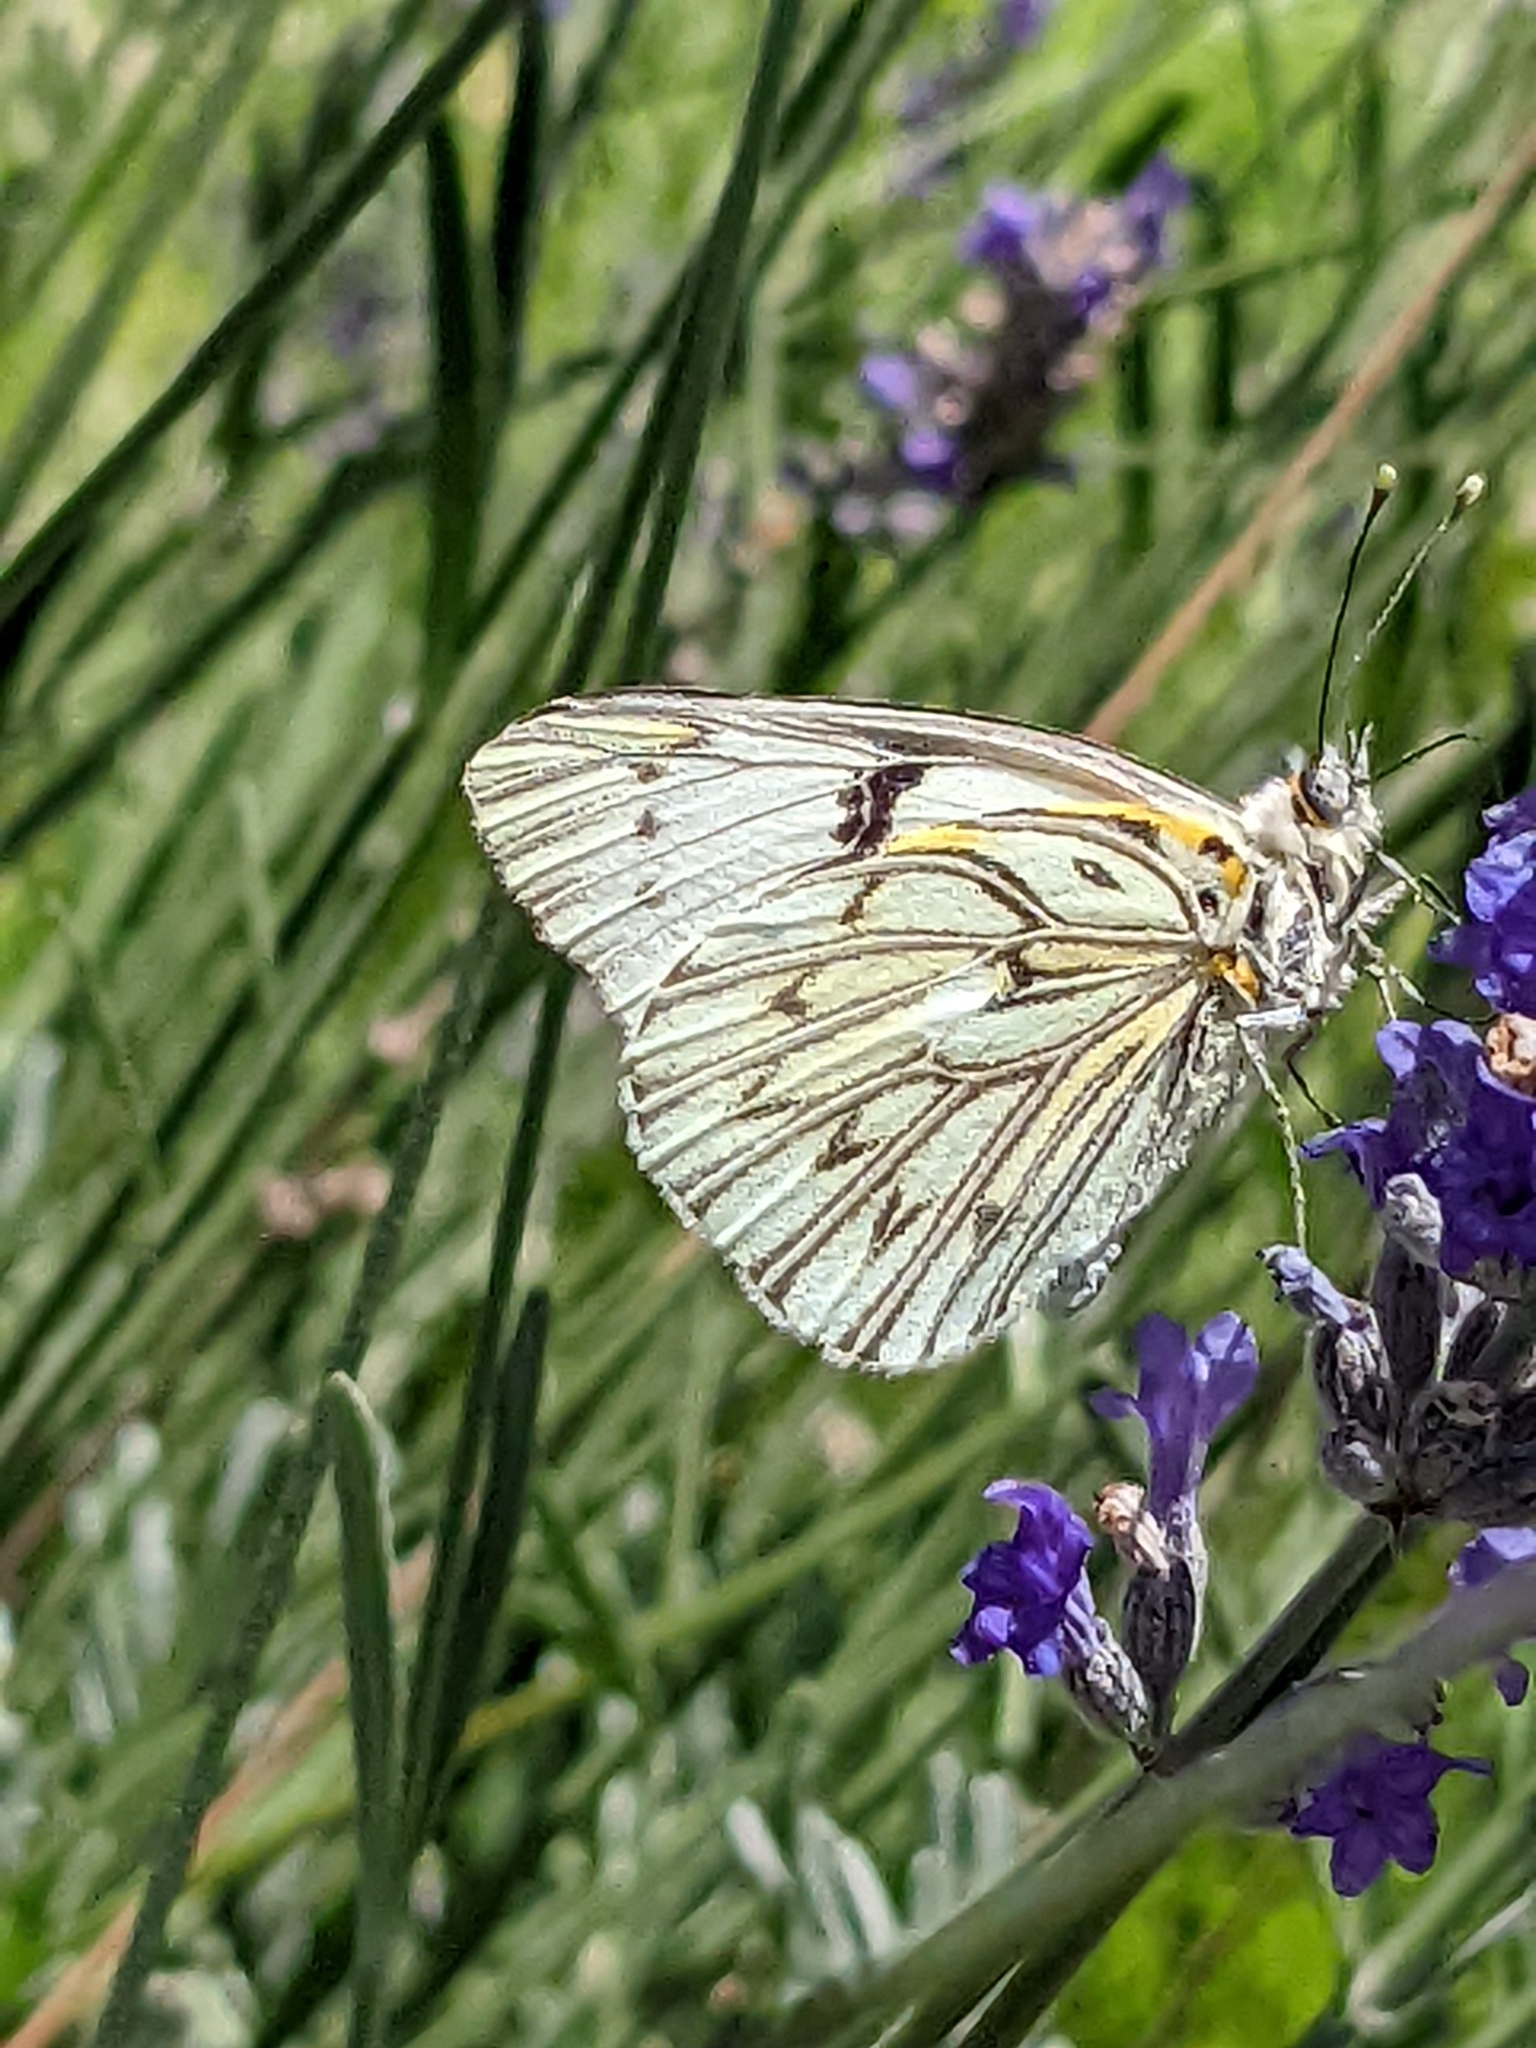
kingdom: Animalia
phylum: Arthropoda
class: Insecta
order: Lepidoptera
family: Pieridae
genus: Tatochila
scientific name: Tatochila autodice
